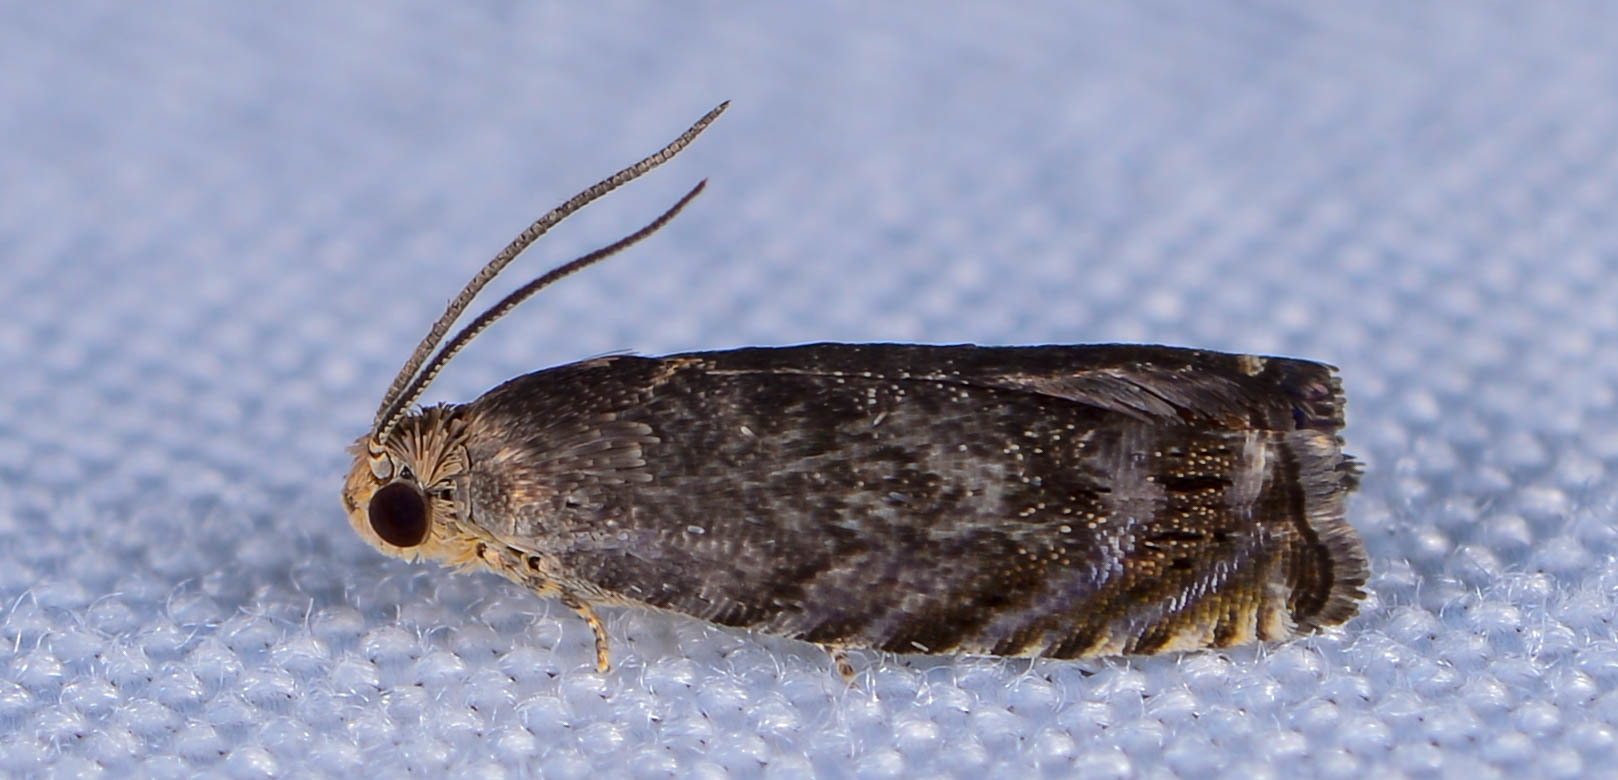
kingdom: Animalia
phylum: Arthropoda
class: Insecta
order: Lepidoptera
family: Tortricidae
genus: Cydia
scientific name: Cydia caryana
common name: Hickory shuckworm moth
